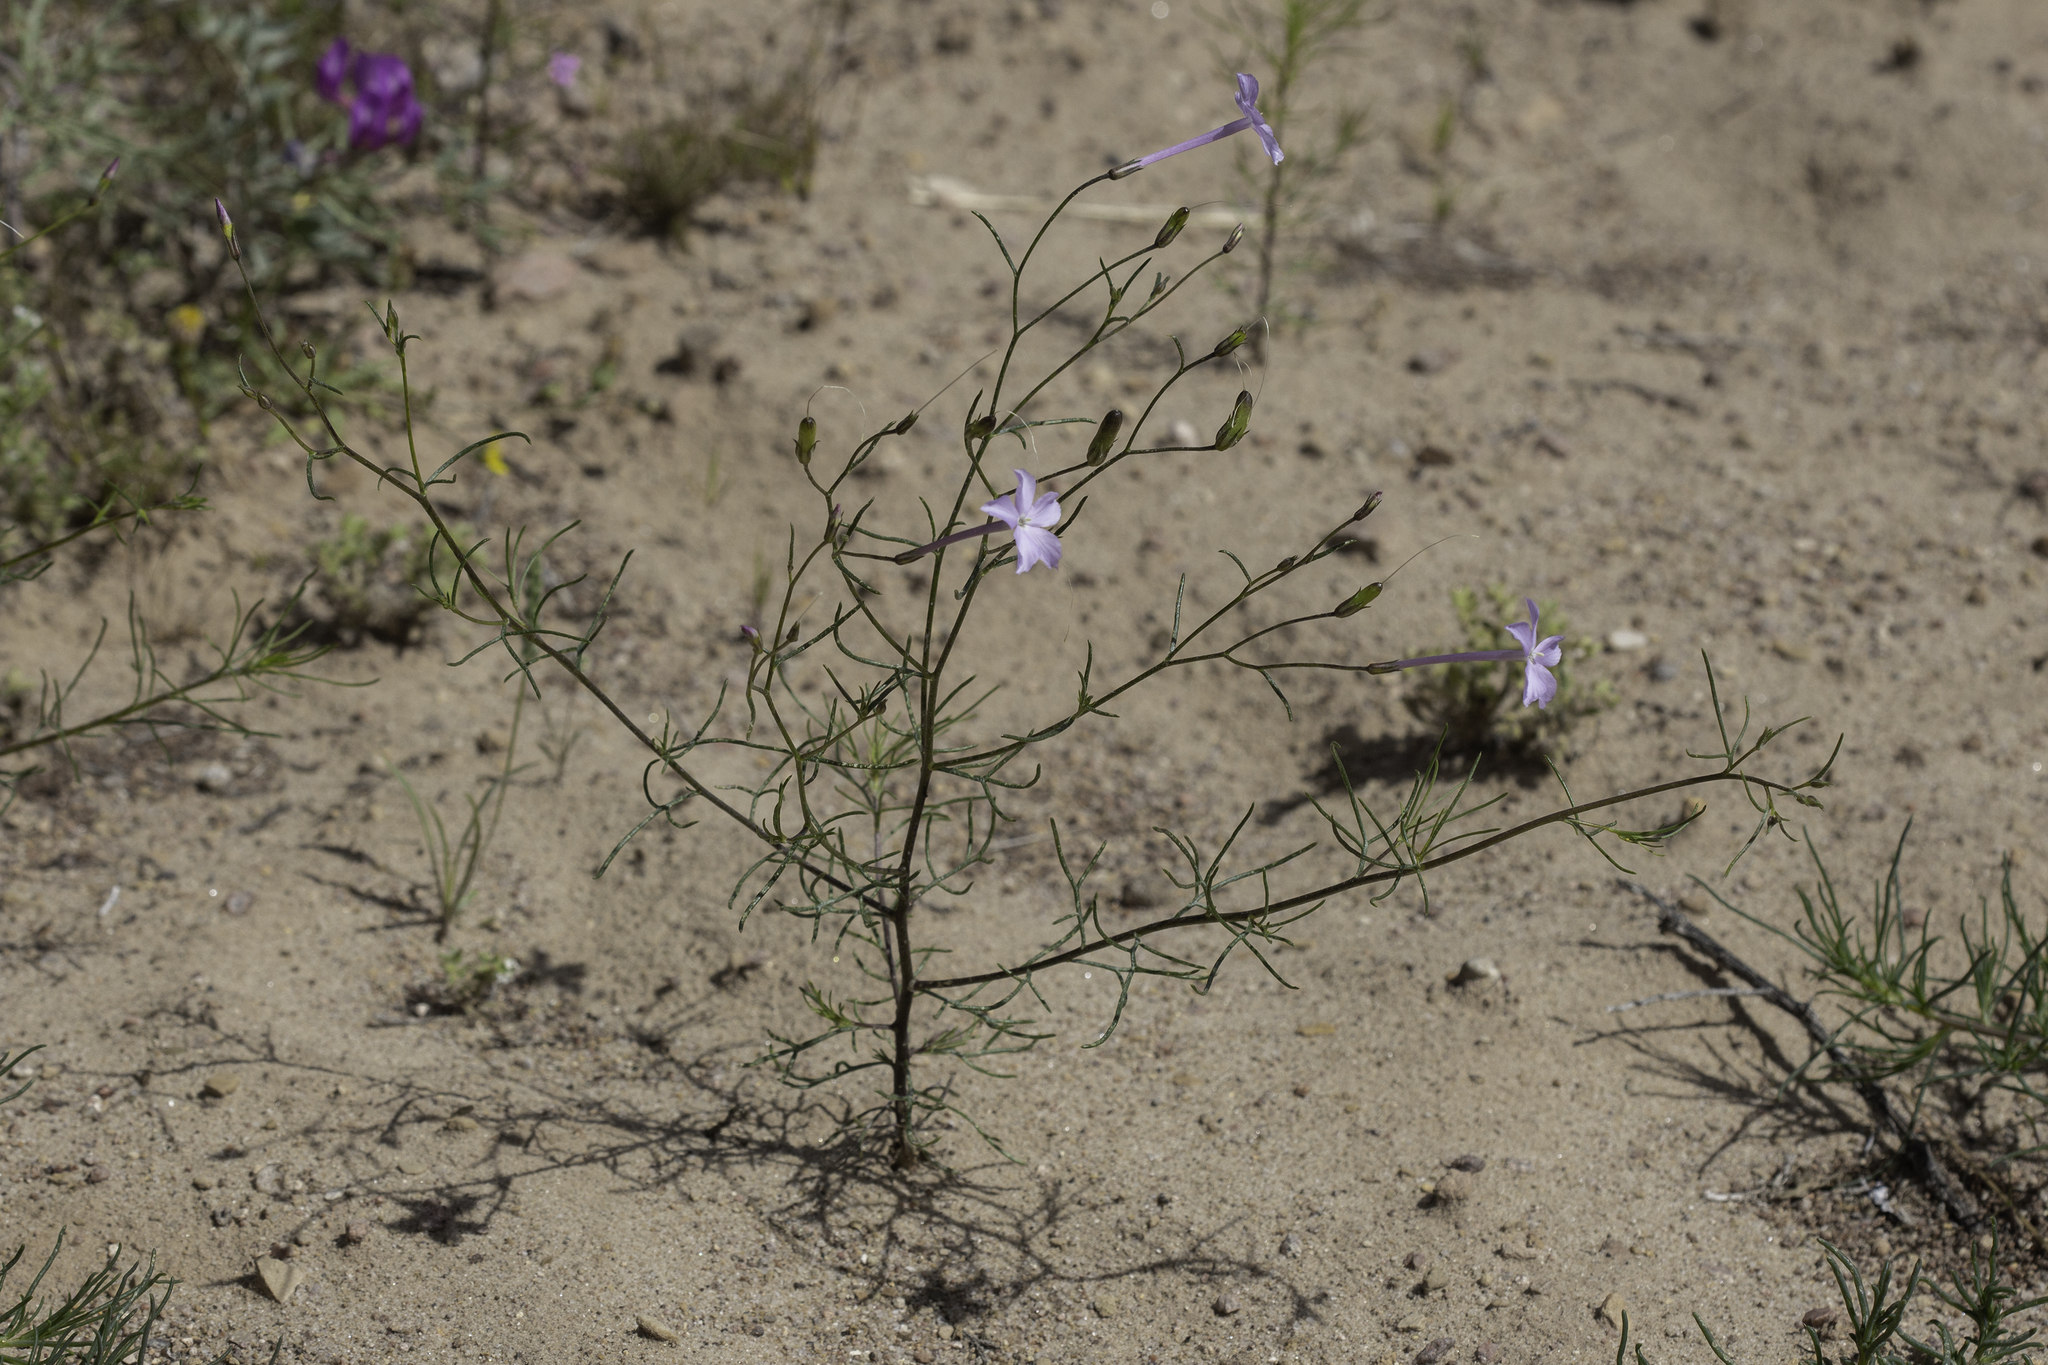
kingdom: Plantae
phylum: Tracheophyta
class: Magnoliopsida
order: Ericales
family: Polemoniaceae
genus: Ipomopsis
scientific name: Ipomopsis longiflora
